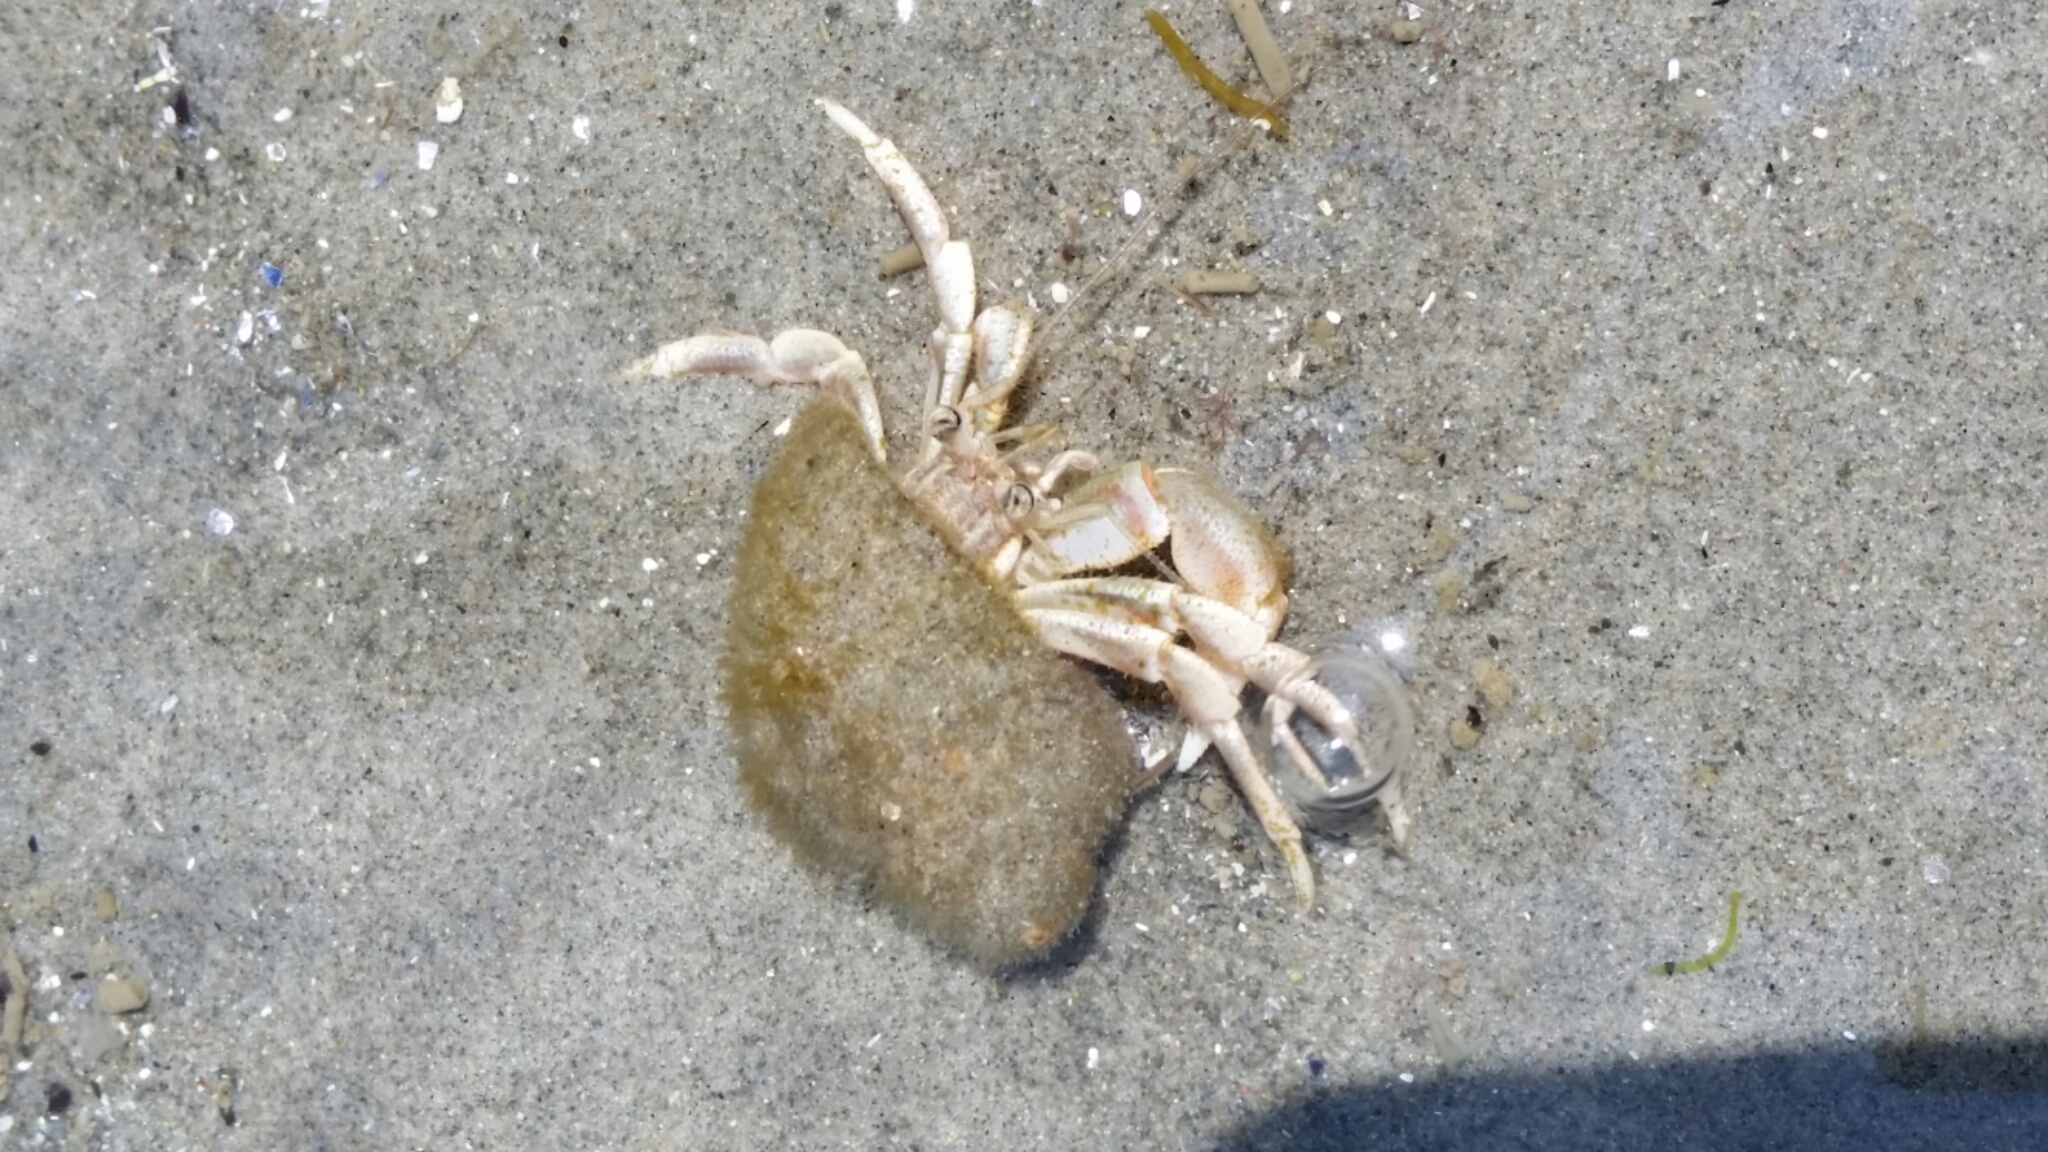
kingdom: Animalia
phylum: Arthropoda
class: Malacostraca
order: Decapoda
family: Paguridae
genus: Pagurus
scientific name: Pagurus longicarpus
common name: Long-armed hermit crab
